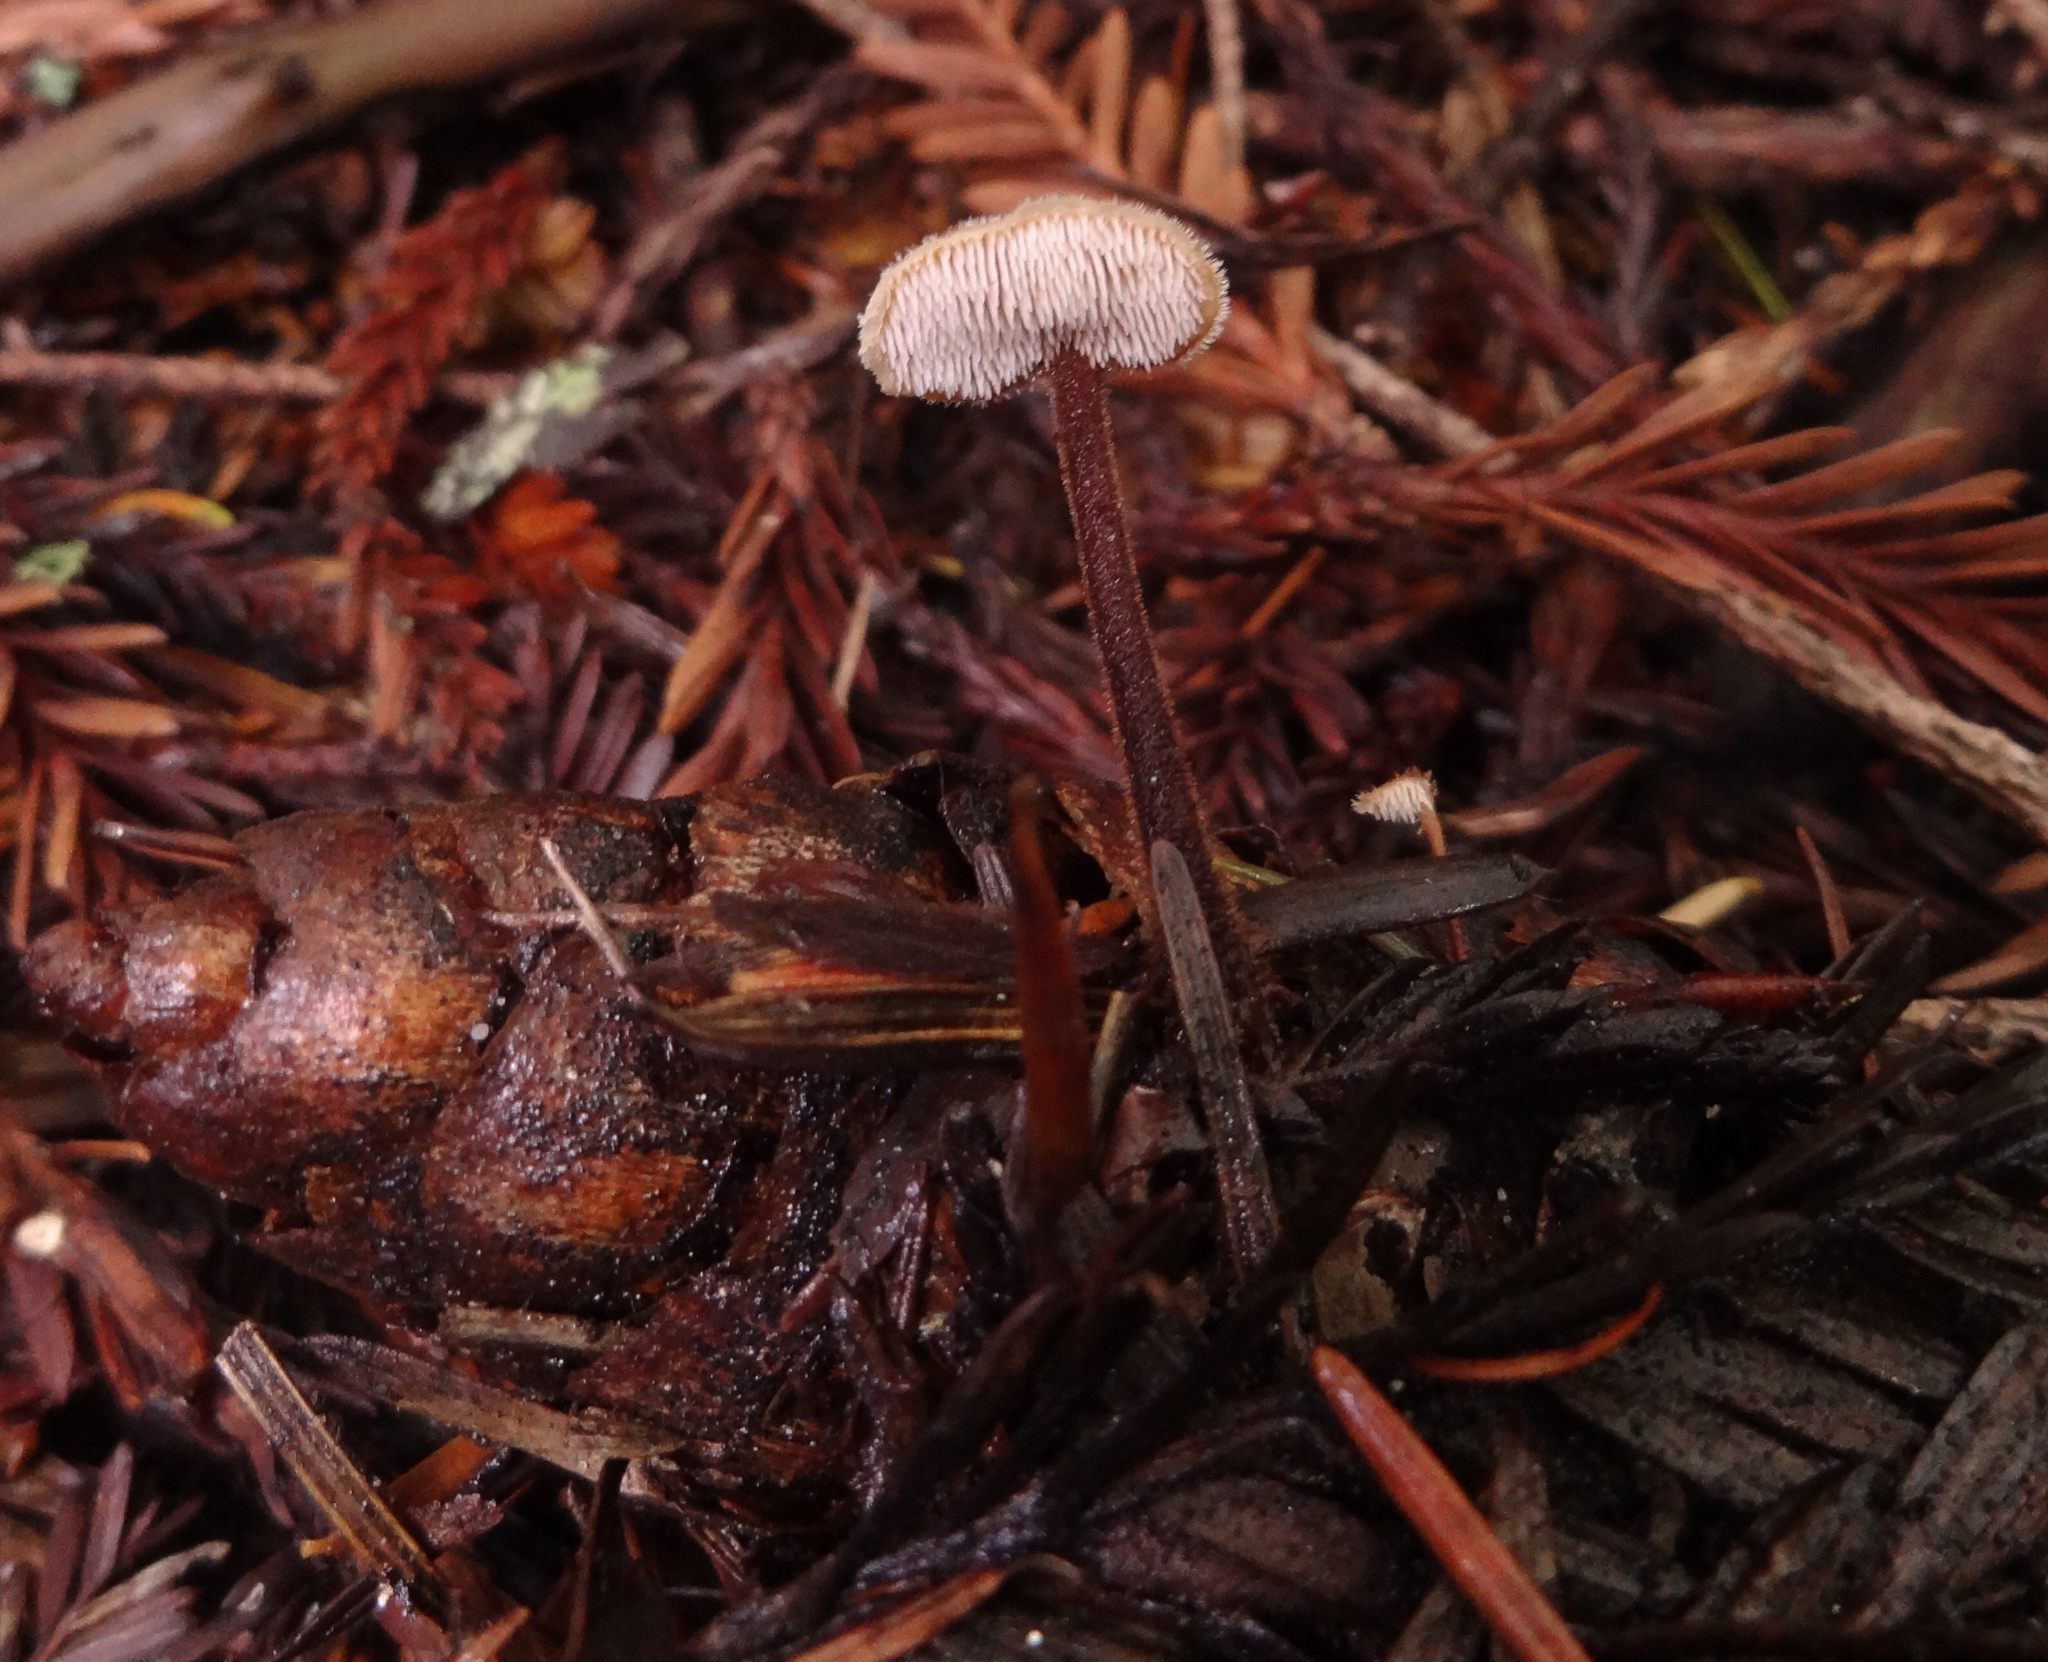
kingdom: Fungi
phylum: Basidiomycota
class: Agaricomycetes
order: Russulales
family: Auriscalpiaceae
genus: Auriscalpium
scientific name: Auriscalpium vulgare
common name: Earpick fungus
